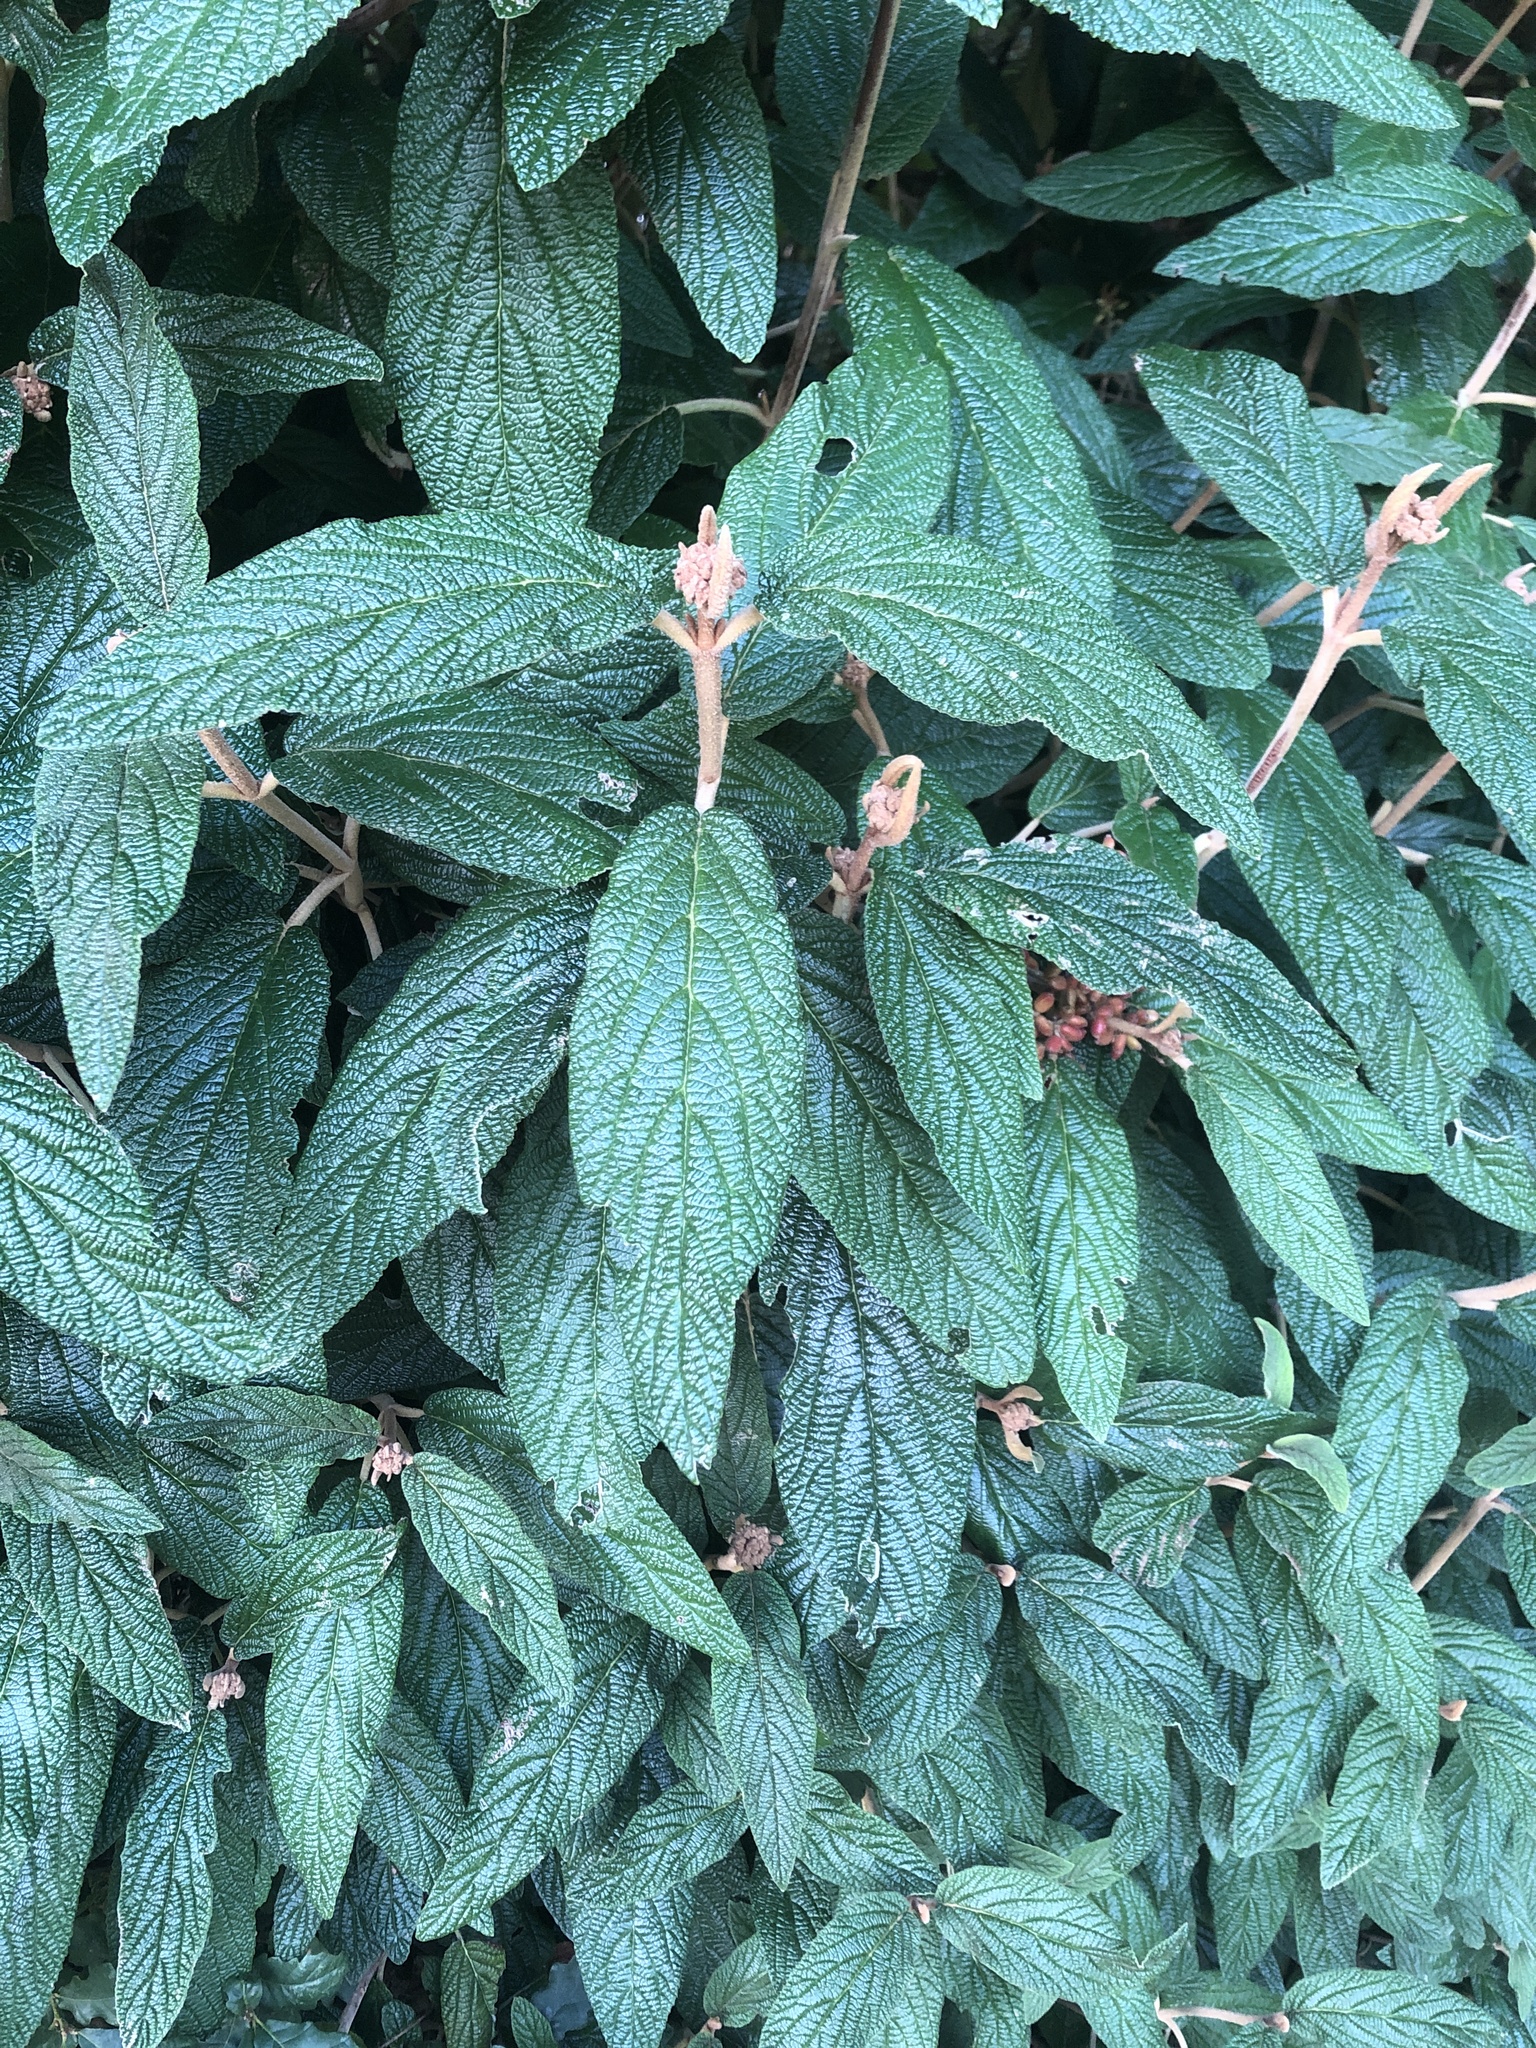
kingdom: Plantae
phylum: Tracheophyta
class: Magnoliopsida
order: Dipsacales
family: Viburnaceae
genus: Viburnum
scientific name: Viburnum rhytidophyllum
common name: Wrinkled viburnum
